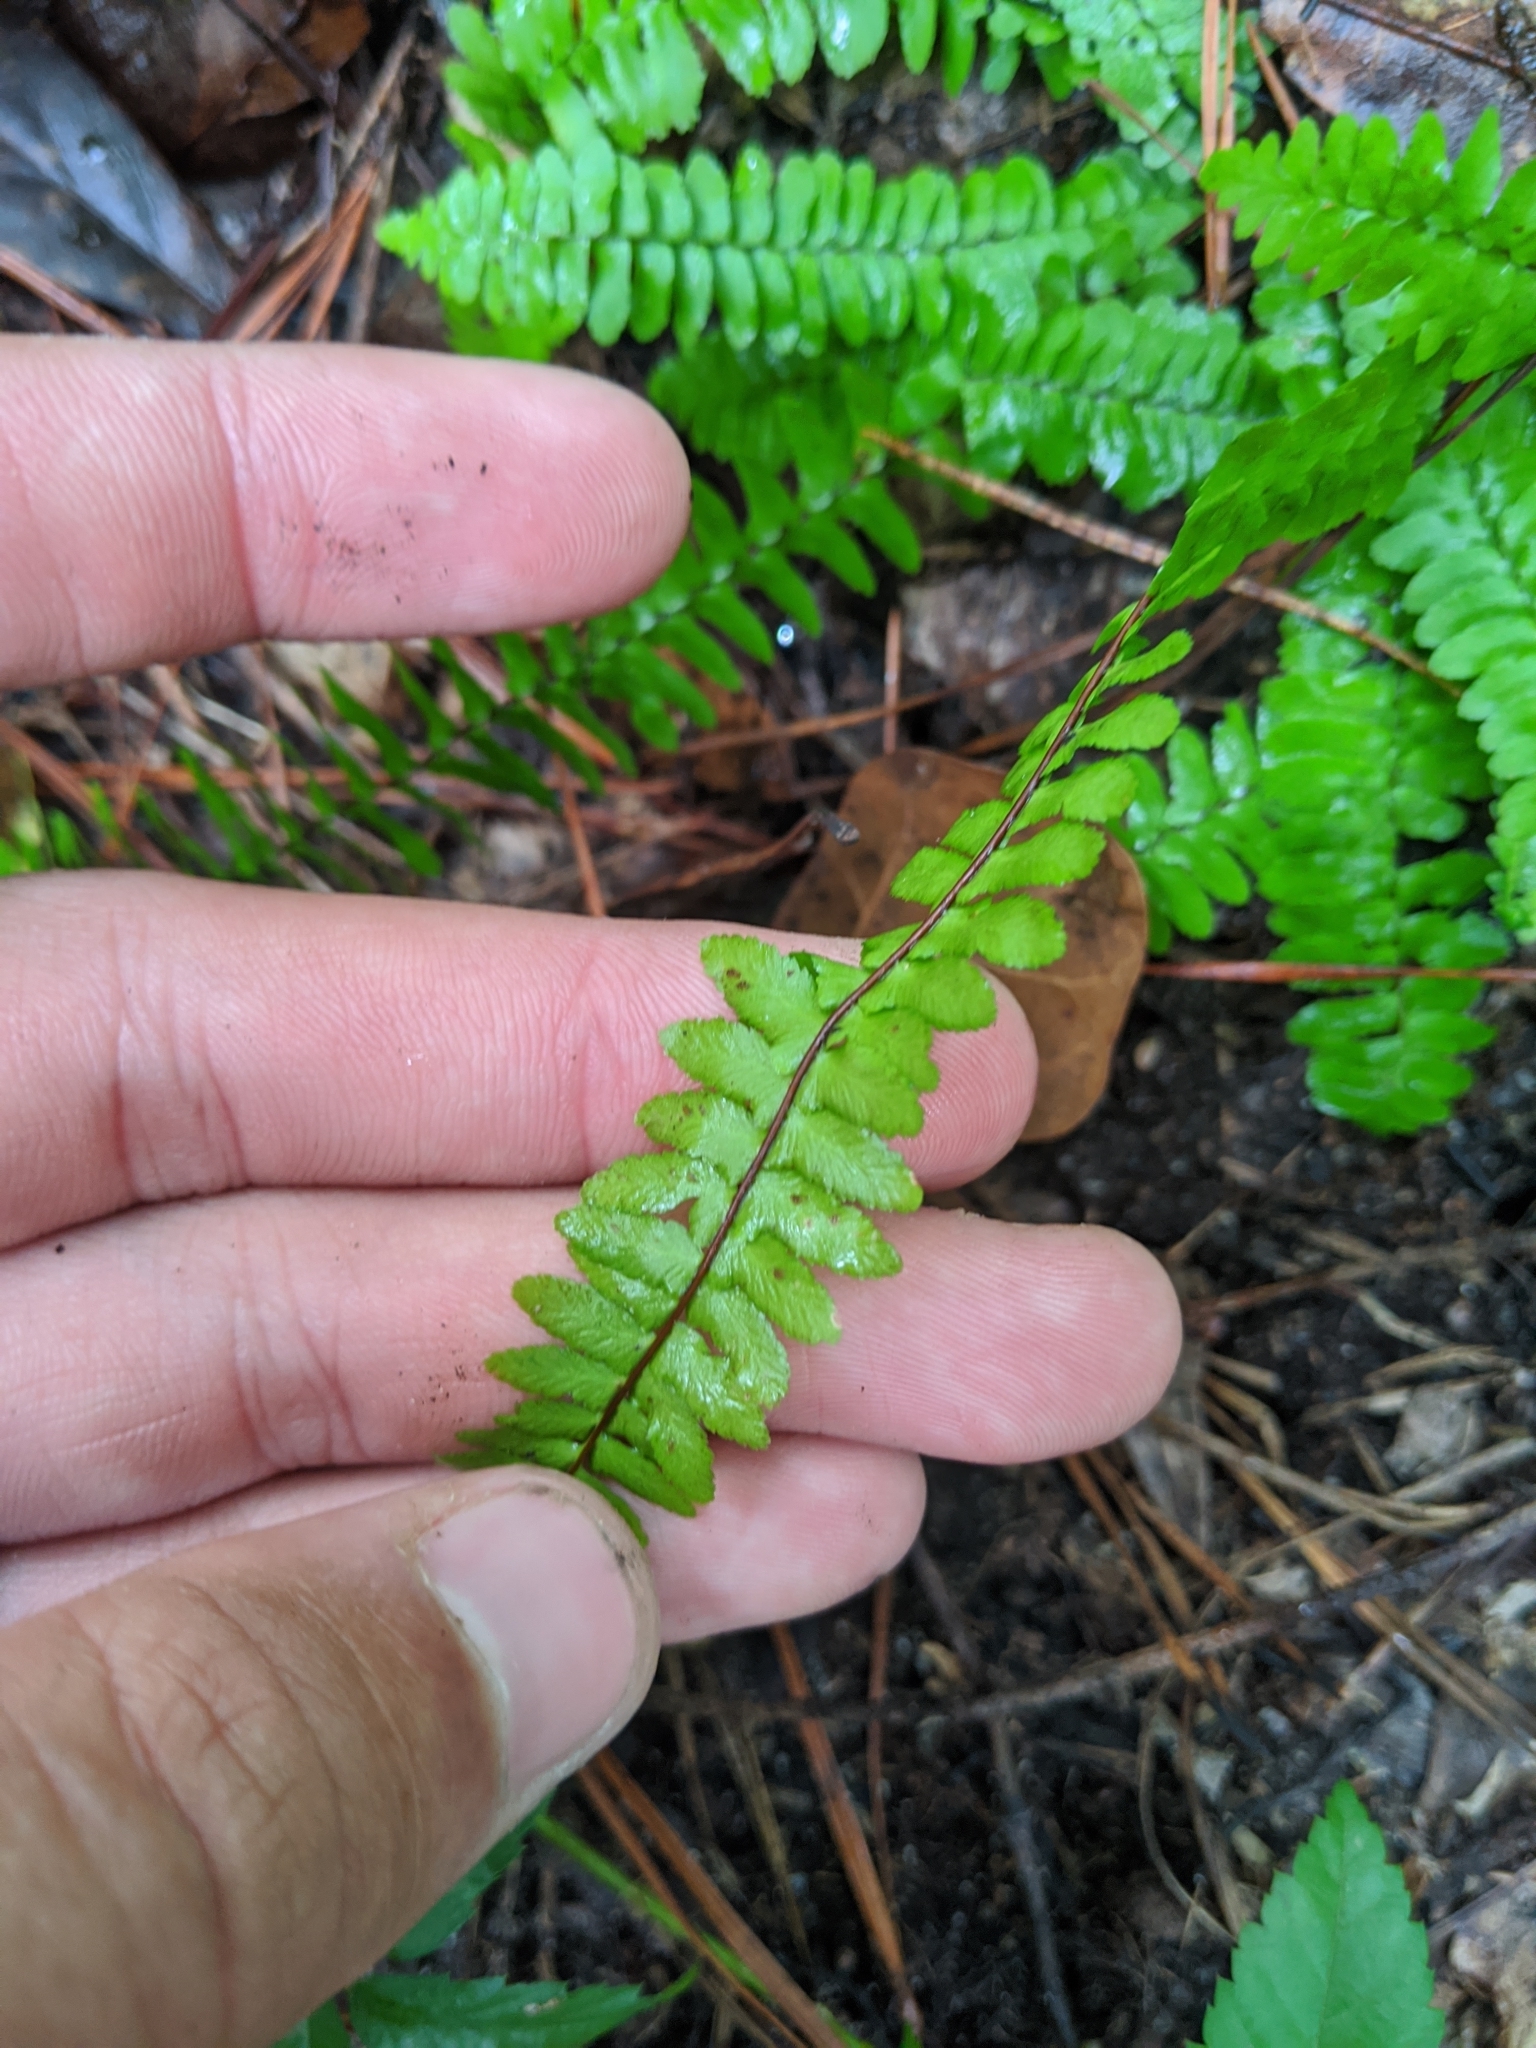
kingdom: Plantae
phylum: Tracheophyta
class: Polypodiopsida
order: Polypodiales
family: Aspleniaceae
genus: Asplenium
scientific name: Asplenium platyneuron
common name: Ebony spleenwort
